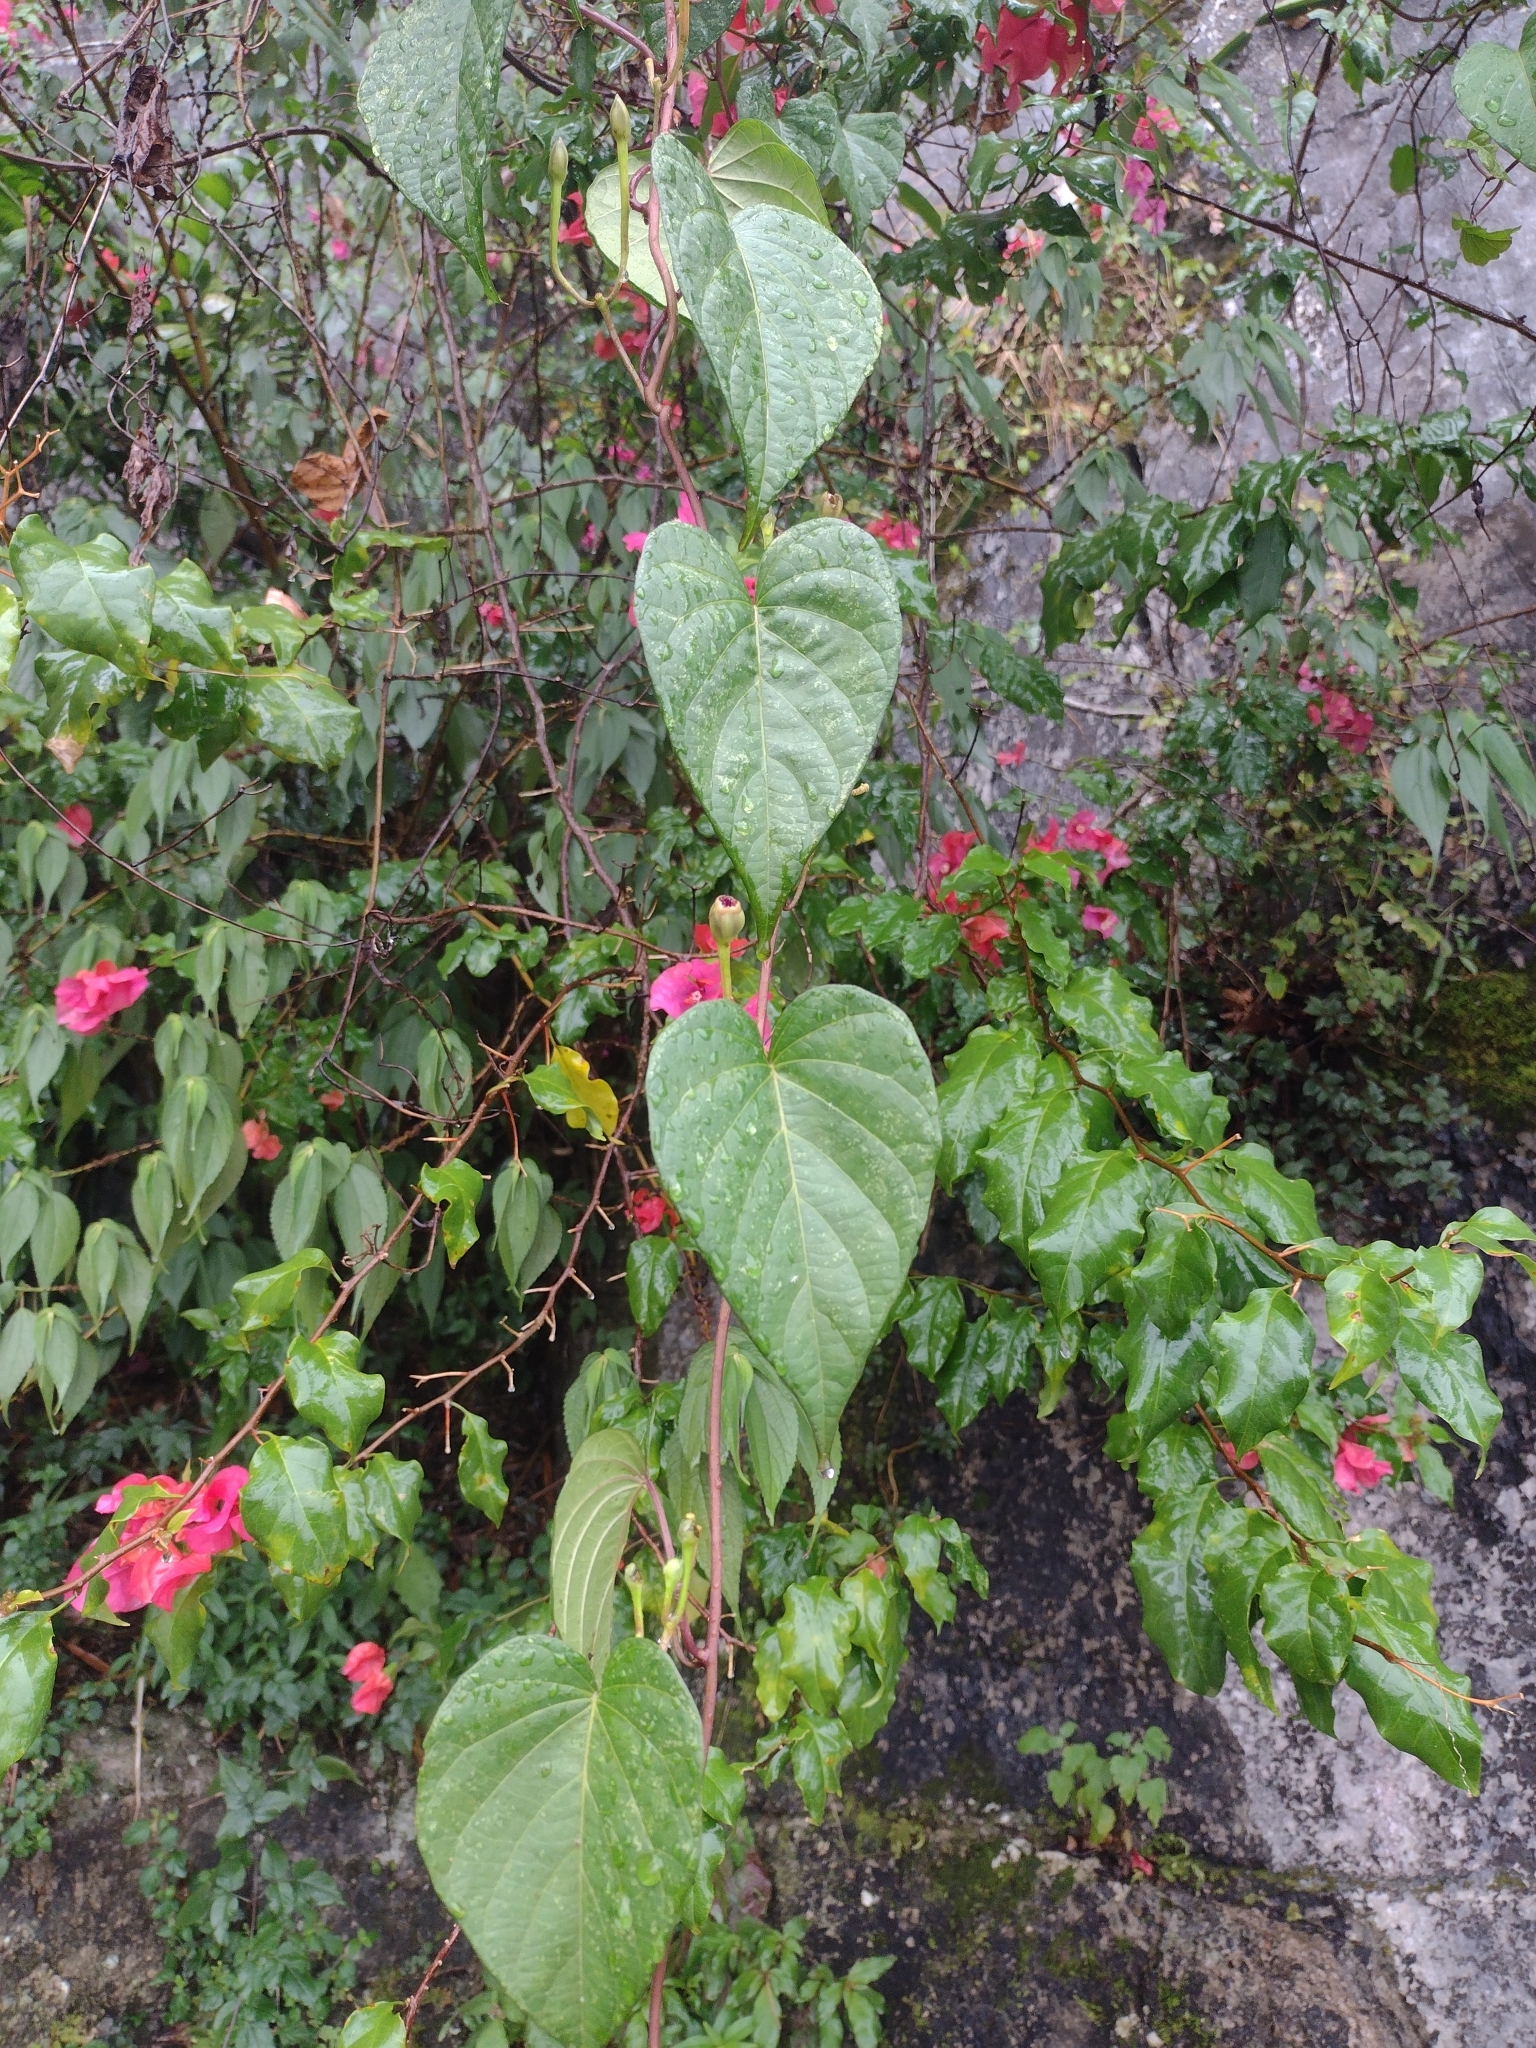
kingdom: Plantae
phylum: Tracheophyta
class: Magnoliopsida
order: Solanales
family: Convolvulaceae
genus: Ipomoea
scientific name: Ipomoea batatoides
